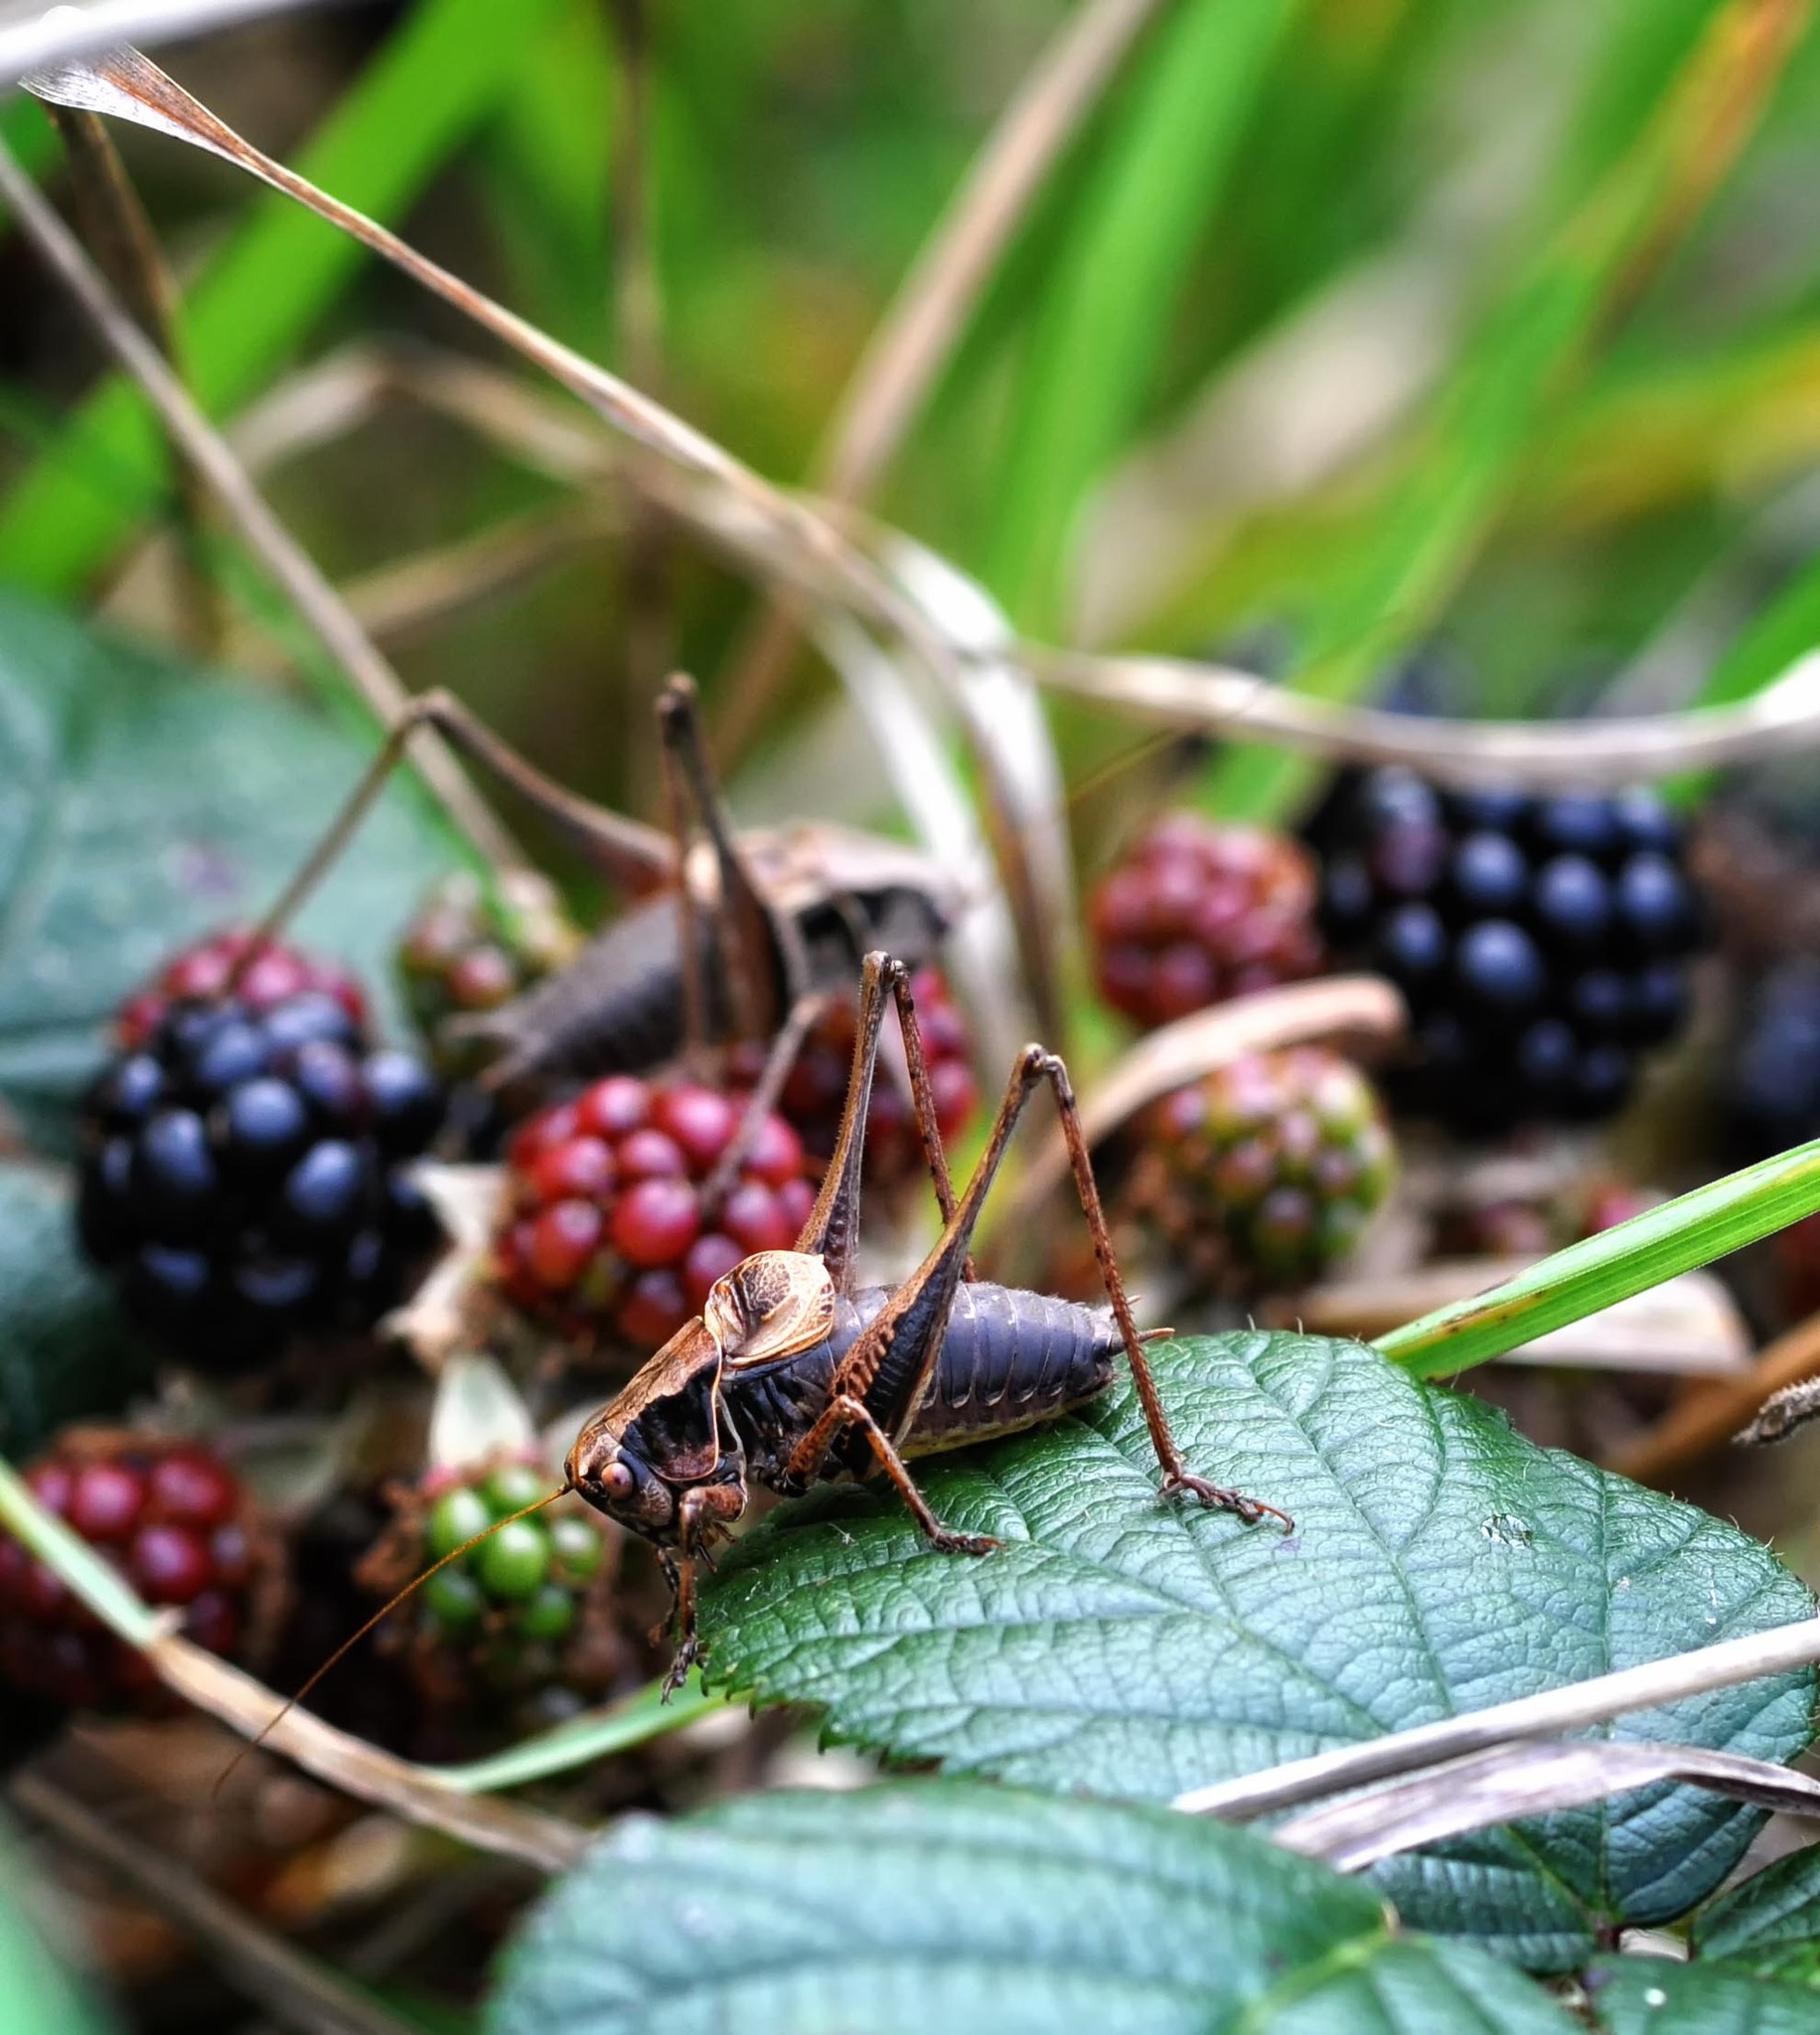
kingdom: Animalia
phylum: Arthropoda
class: Insecta
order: Orthoptera
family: Tettigoniidae
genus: Pholidoptera
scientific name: Pholidoptera griseoaptera
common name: Dark bush-cricket
